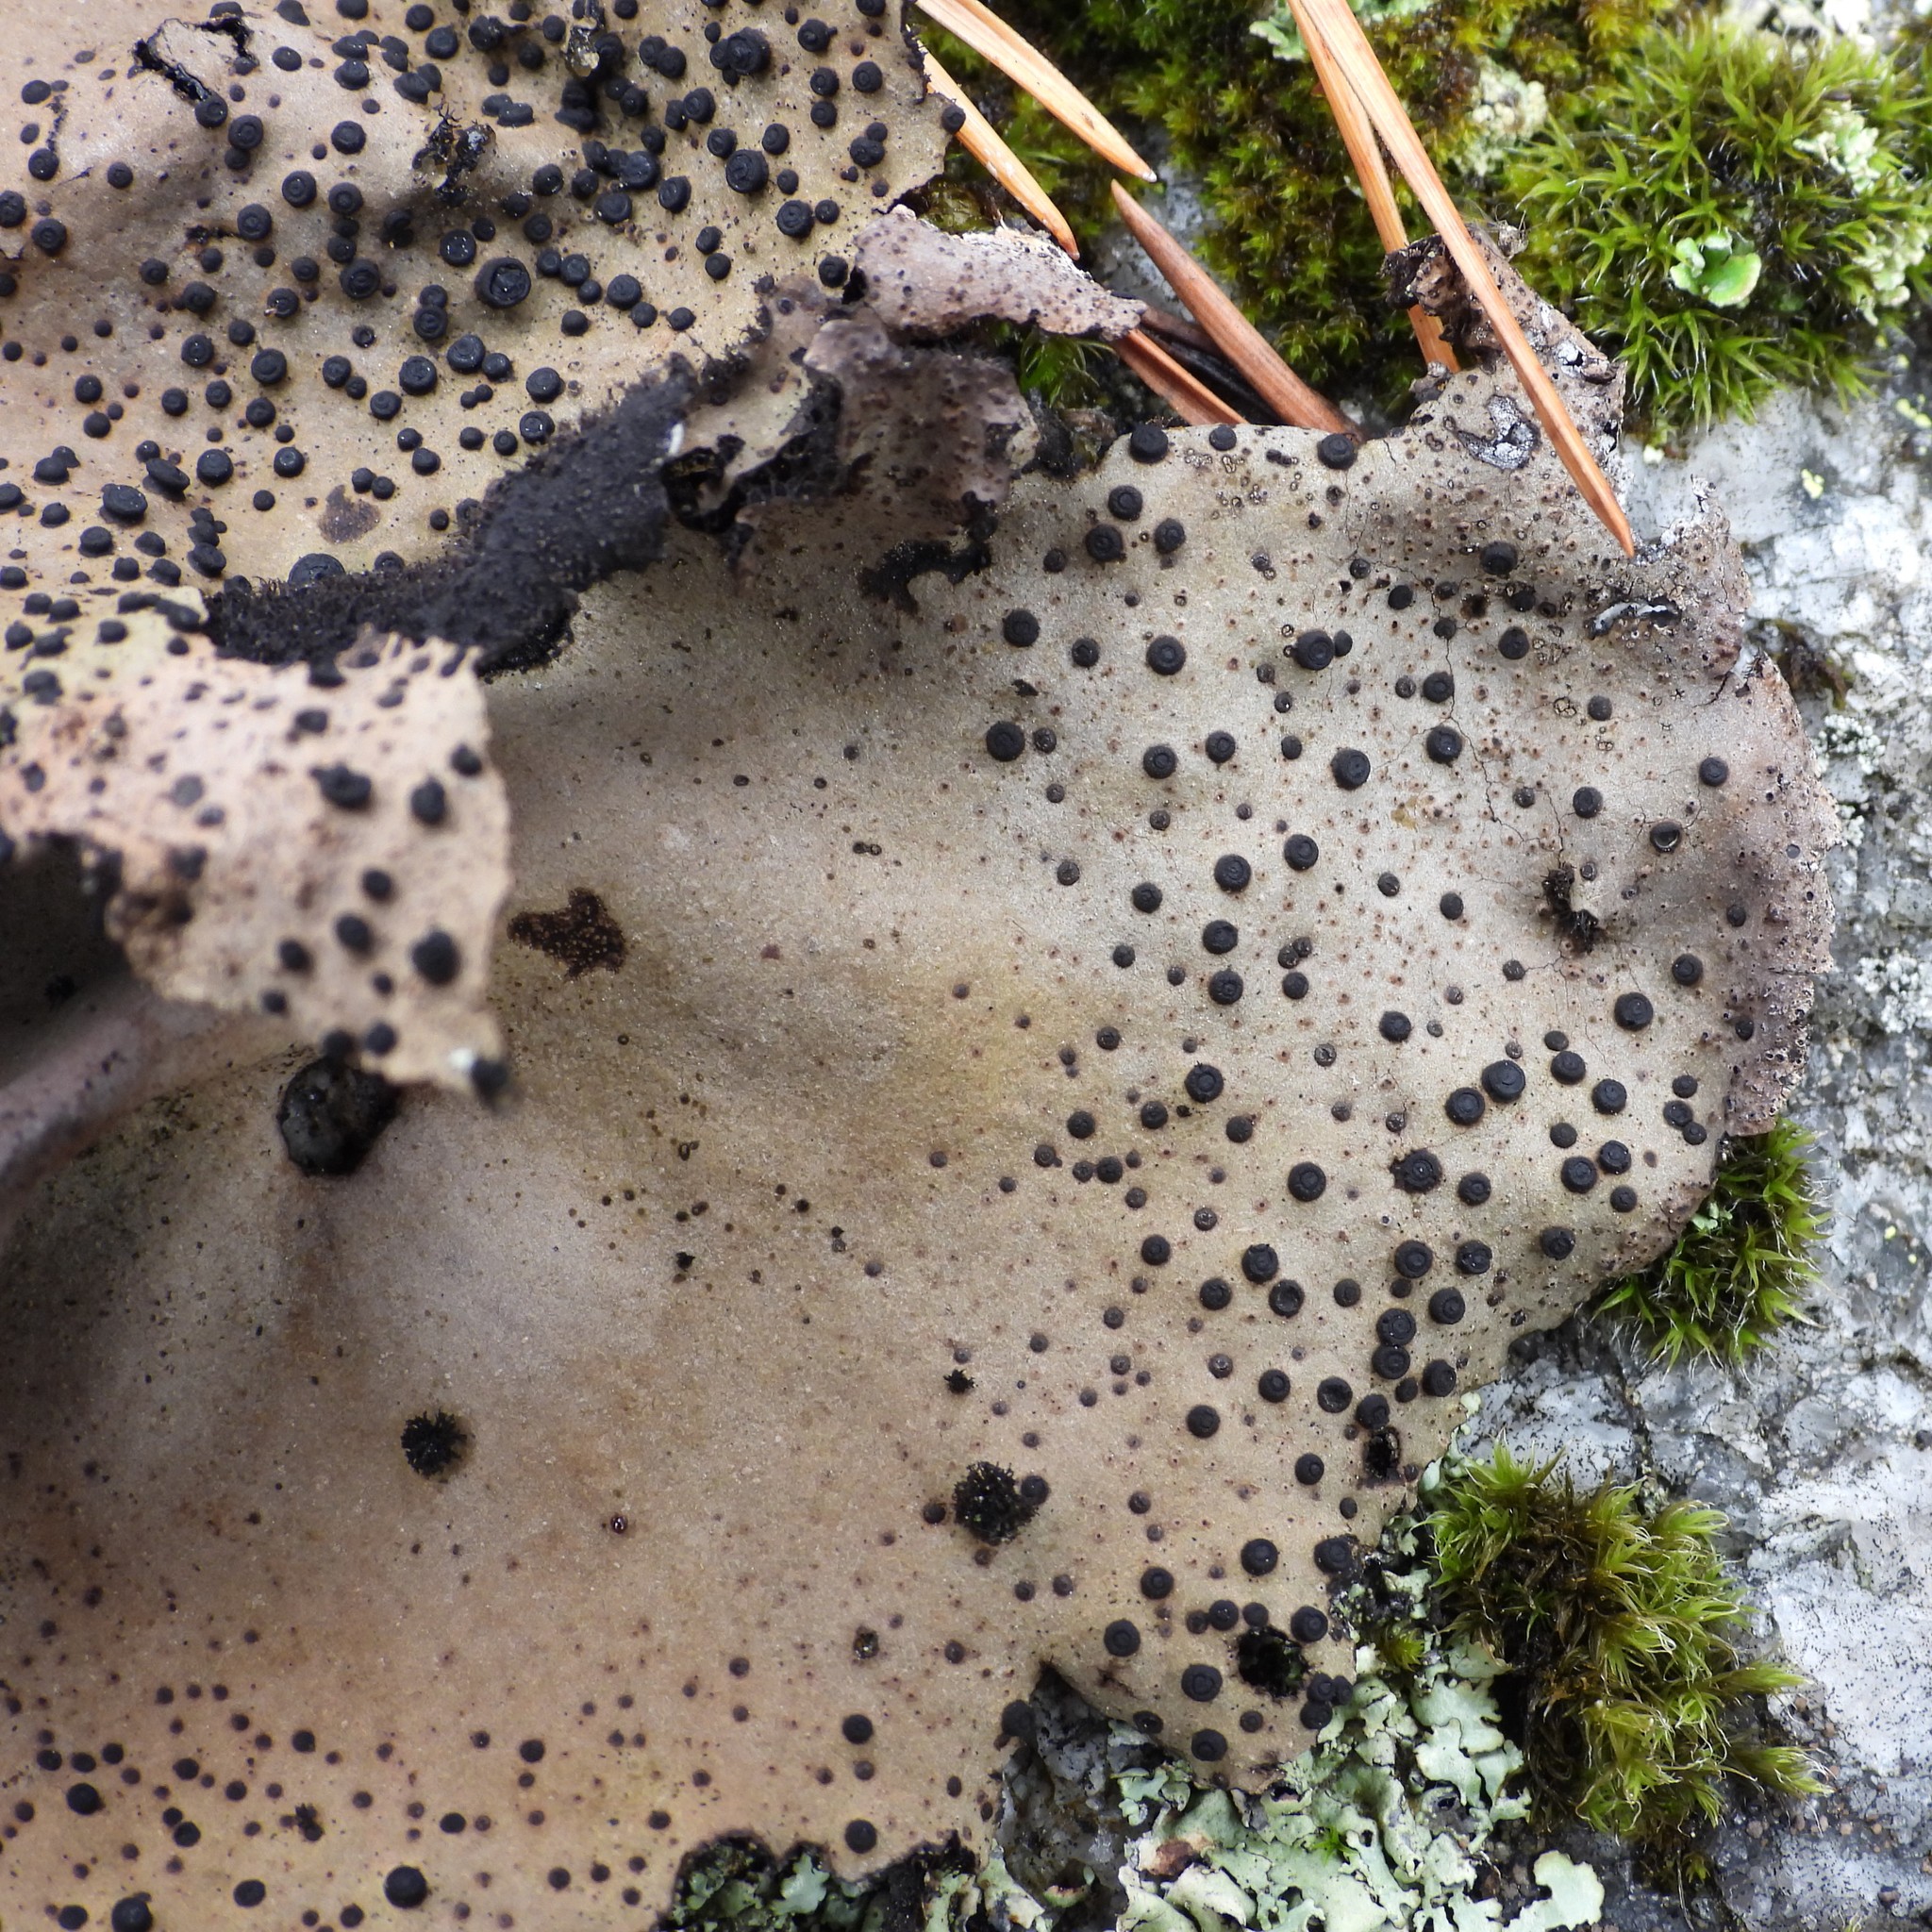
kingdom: Fungi
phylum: Ascomycota
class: Lecanoromycetes
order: Umbilicariales
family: Umbilicariaceae
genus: Umbilicaria
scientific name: Umbilicaria spodochroa
